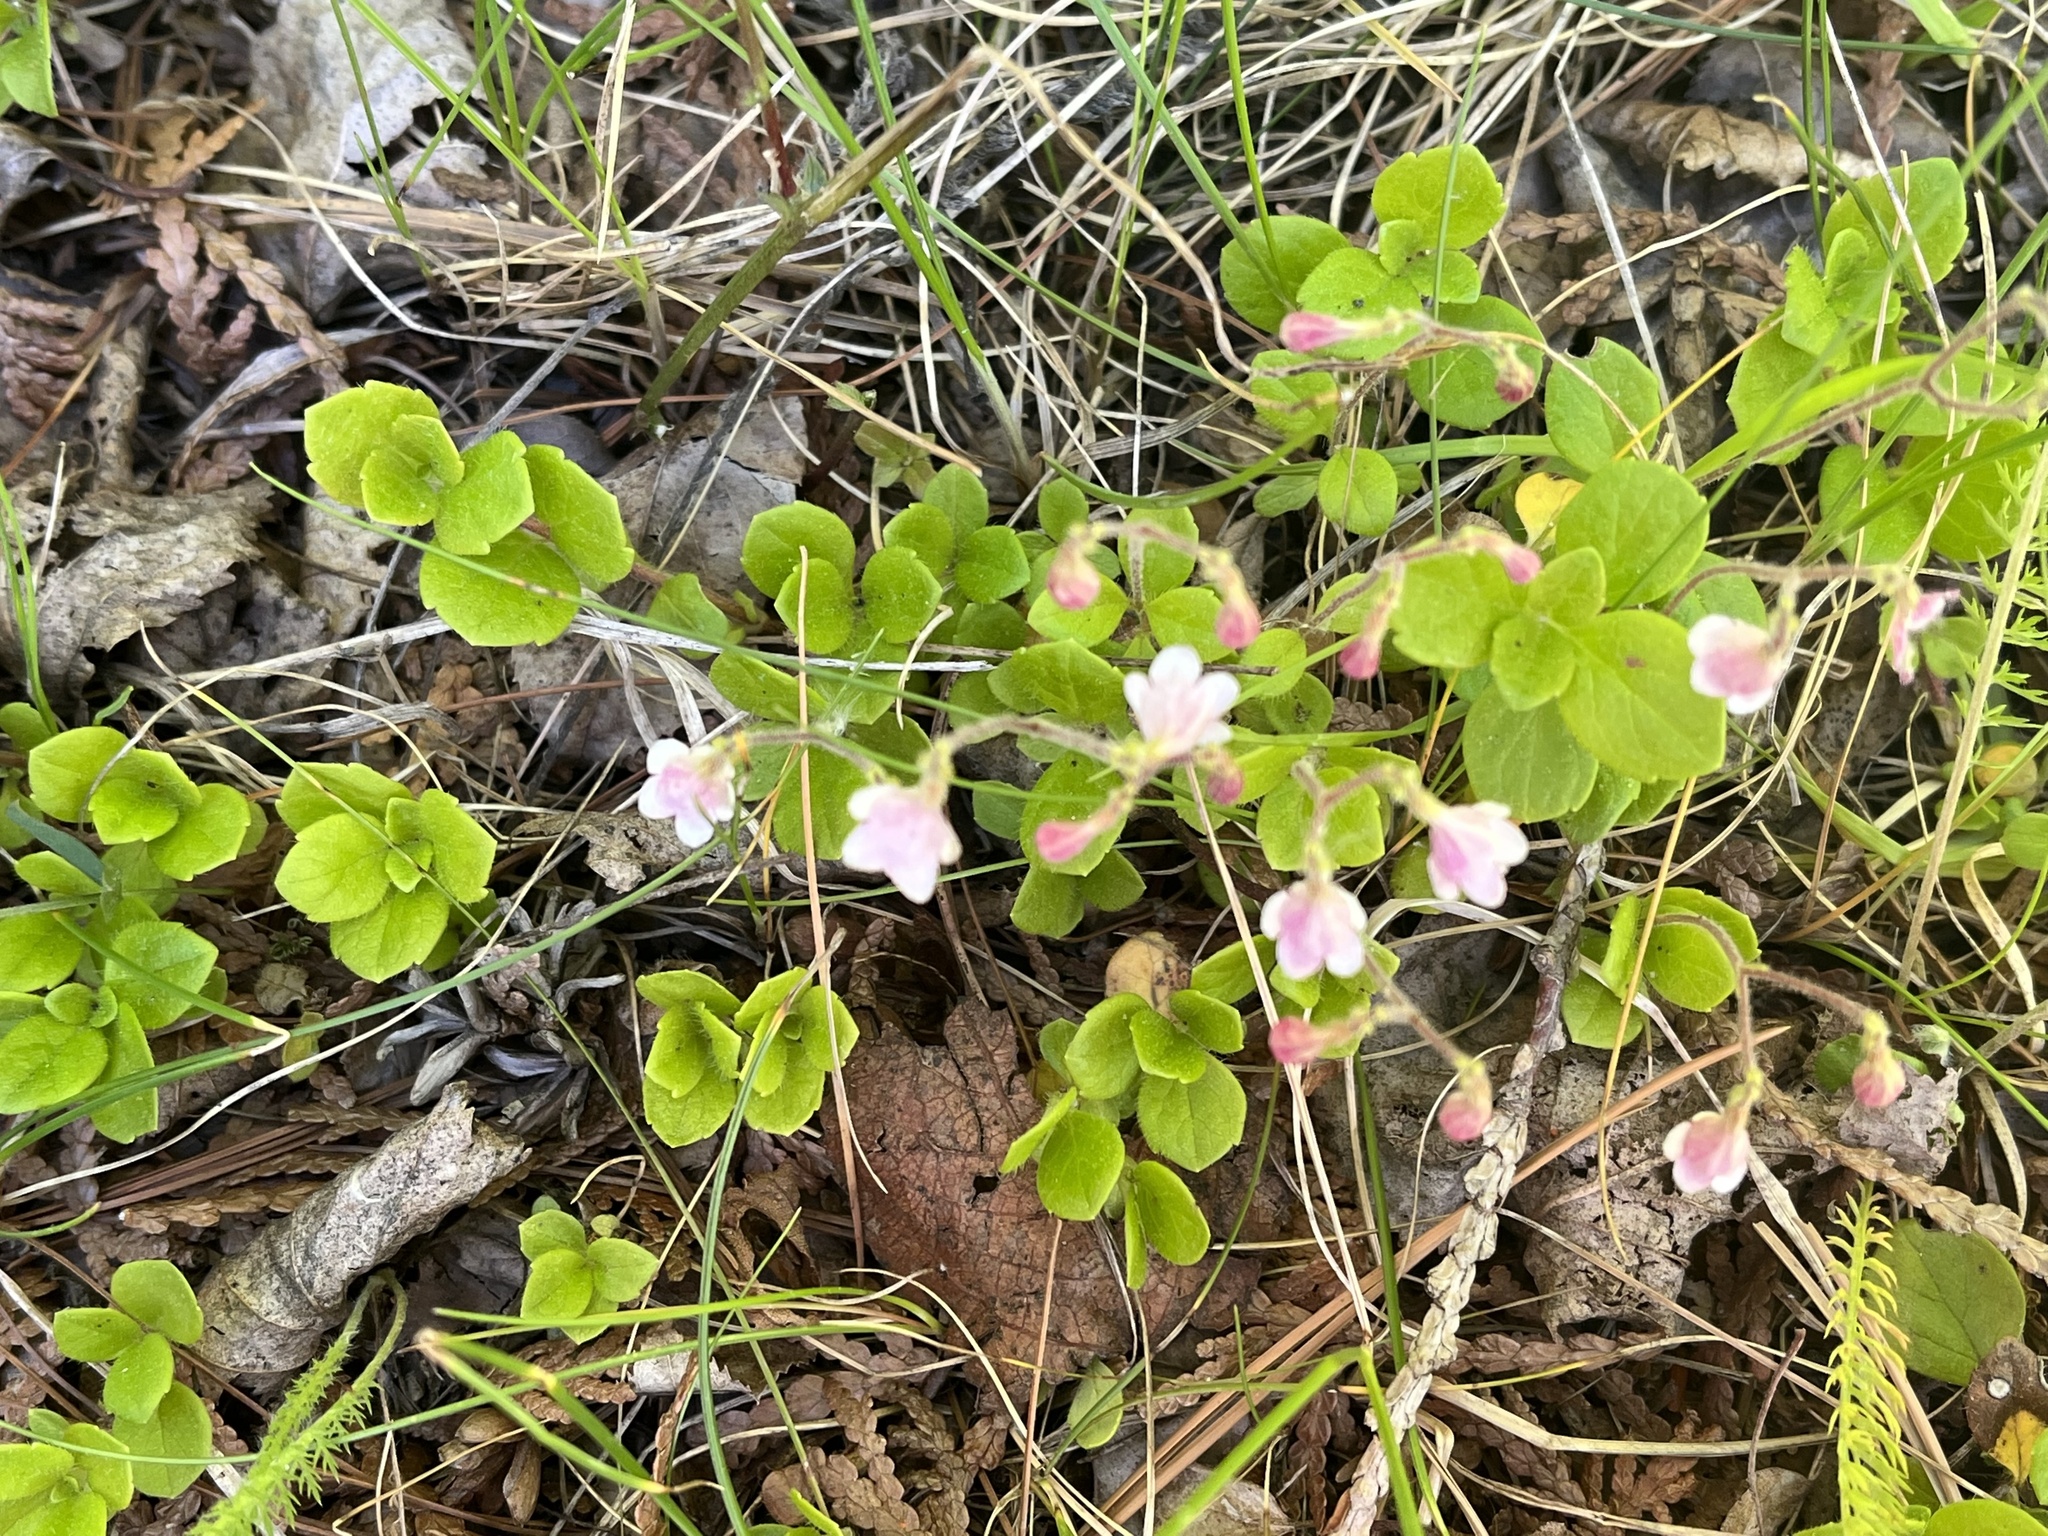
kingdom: Plantae
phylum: Tracheophyta
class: Magnoliopsida
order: Dipsacales
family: Caprifoliaceae
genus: Linnaea
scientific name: Linnaea borealis
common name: Twinflower
